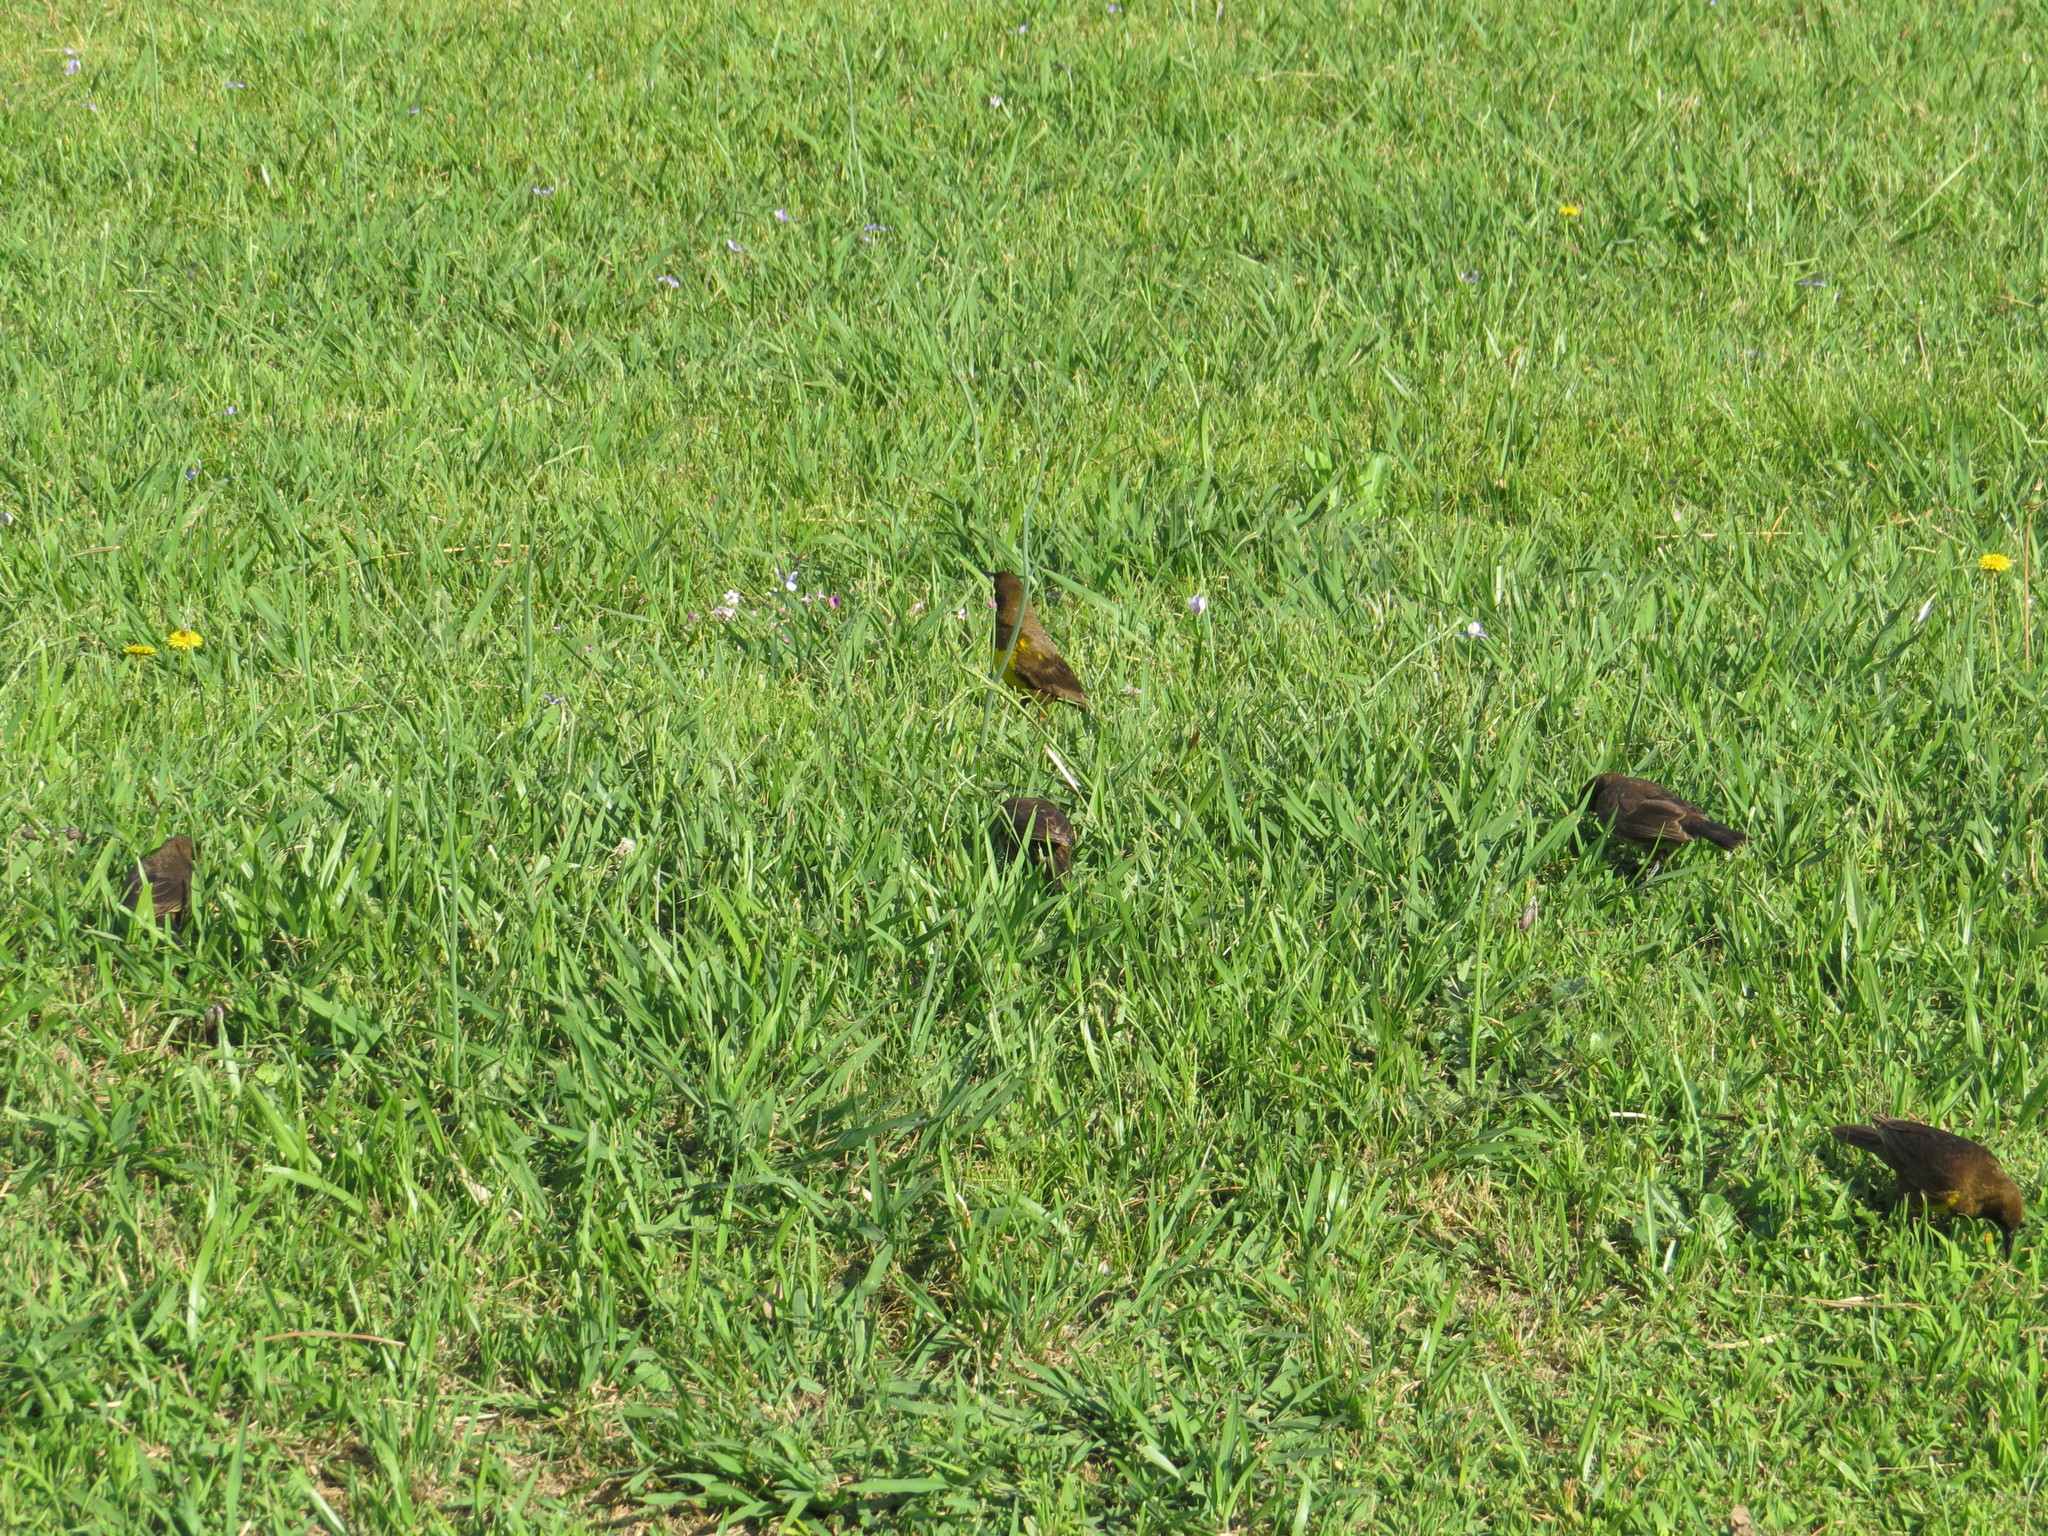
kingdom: Animalia
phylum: Chordata
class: Aves
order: Passeriformes
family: Icteridae
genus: Pseudoleistes
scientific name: Pseudoleistes virescens
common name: Brown-and-yellow marshbird
